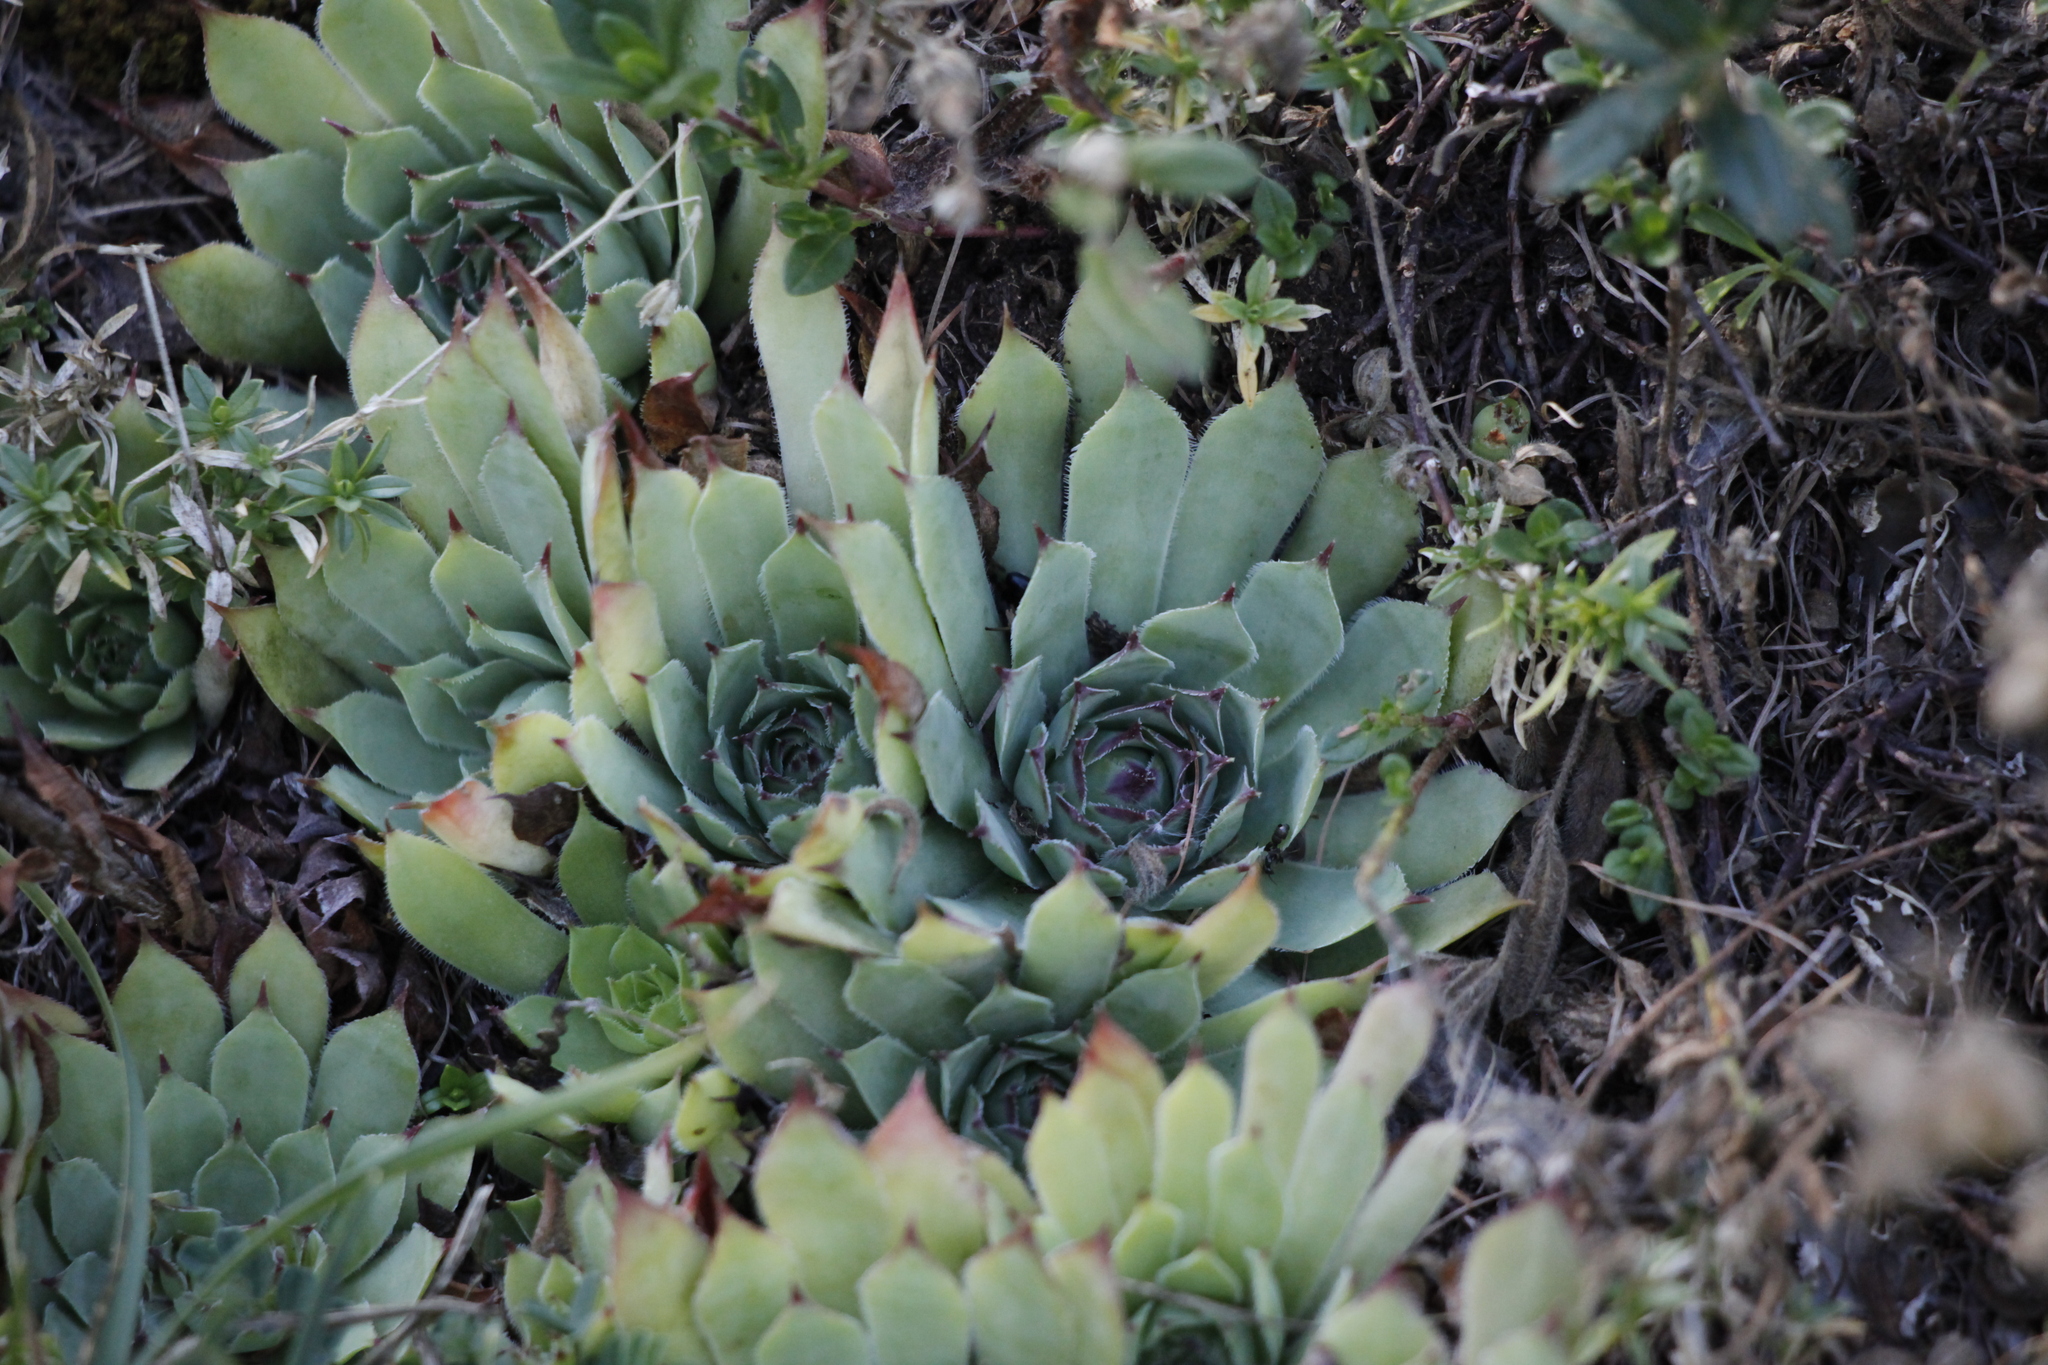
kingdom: Plantae
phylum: Tracheophyta
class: Magnoliopsida
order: Saxifragales
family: Crassulaceae
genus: Sempervivum
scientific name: Sempervivum tectorum
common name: House-leek
